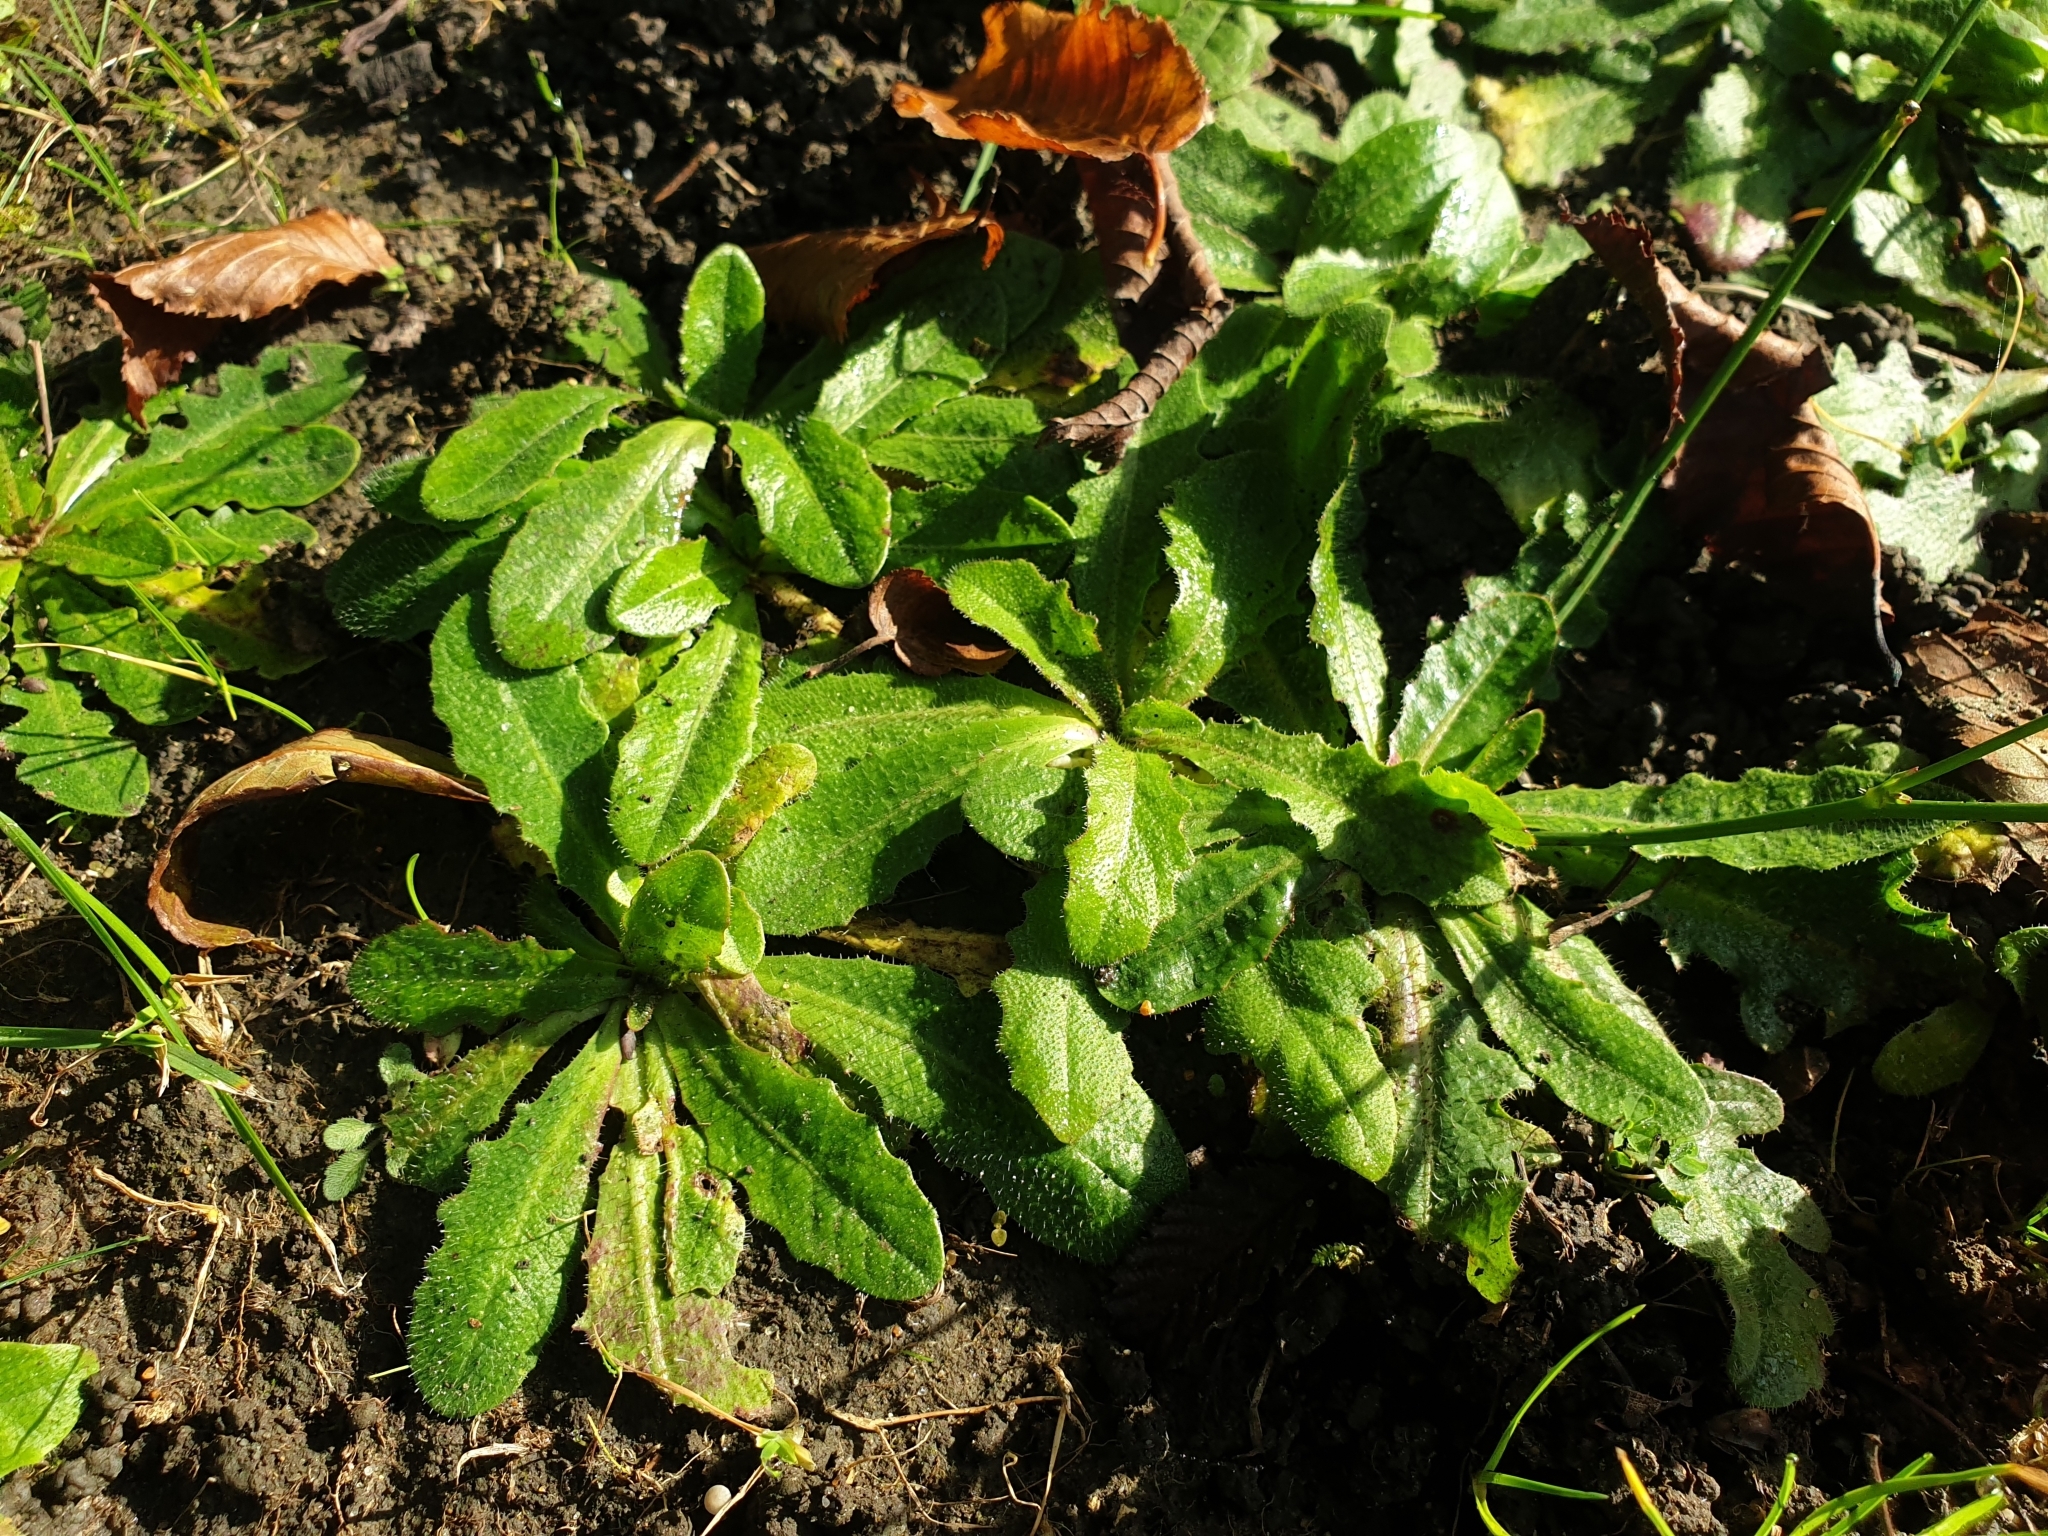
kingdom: Plantae
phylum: Tracheophyta
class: Magnoliopsida
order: Asterales
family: Asteraceae
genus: Hypochaeris
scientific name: Hypochaeris radicata
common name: Flatweed
